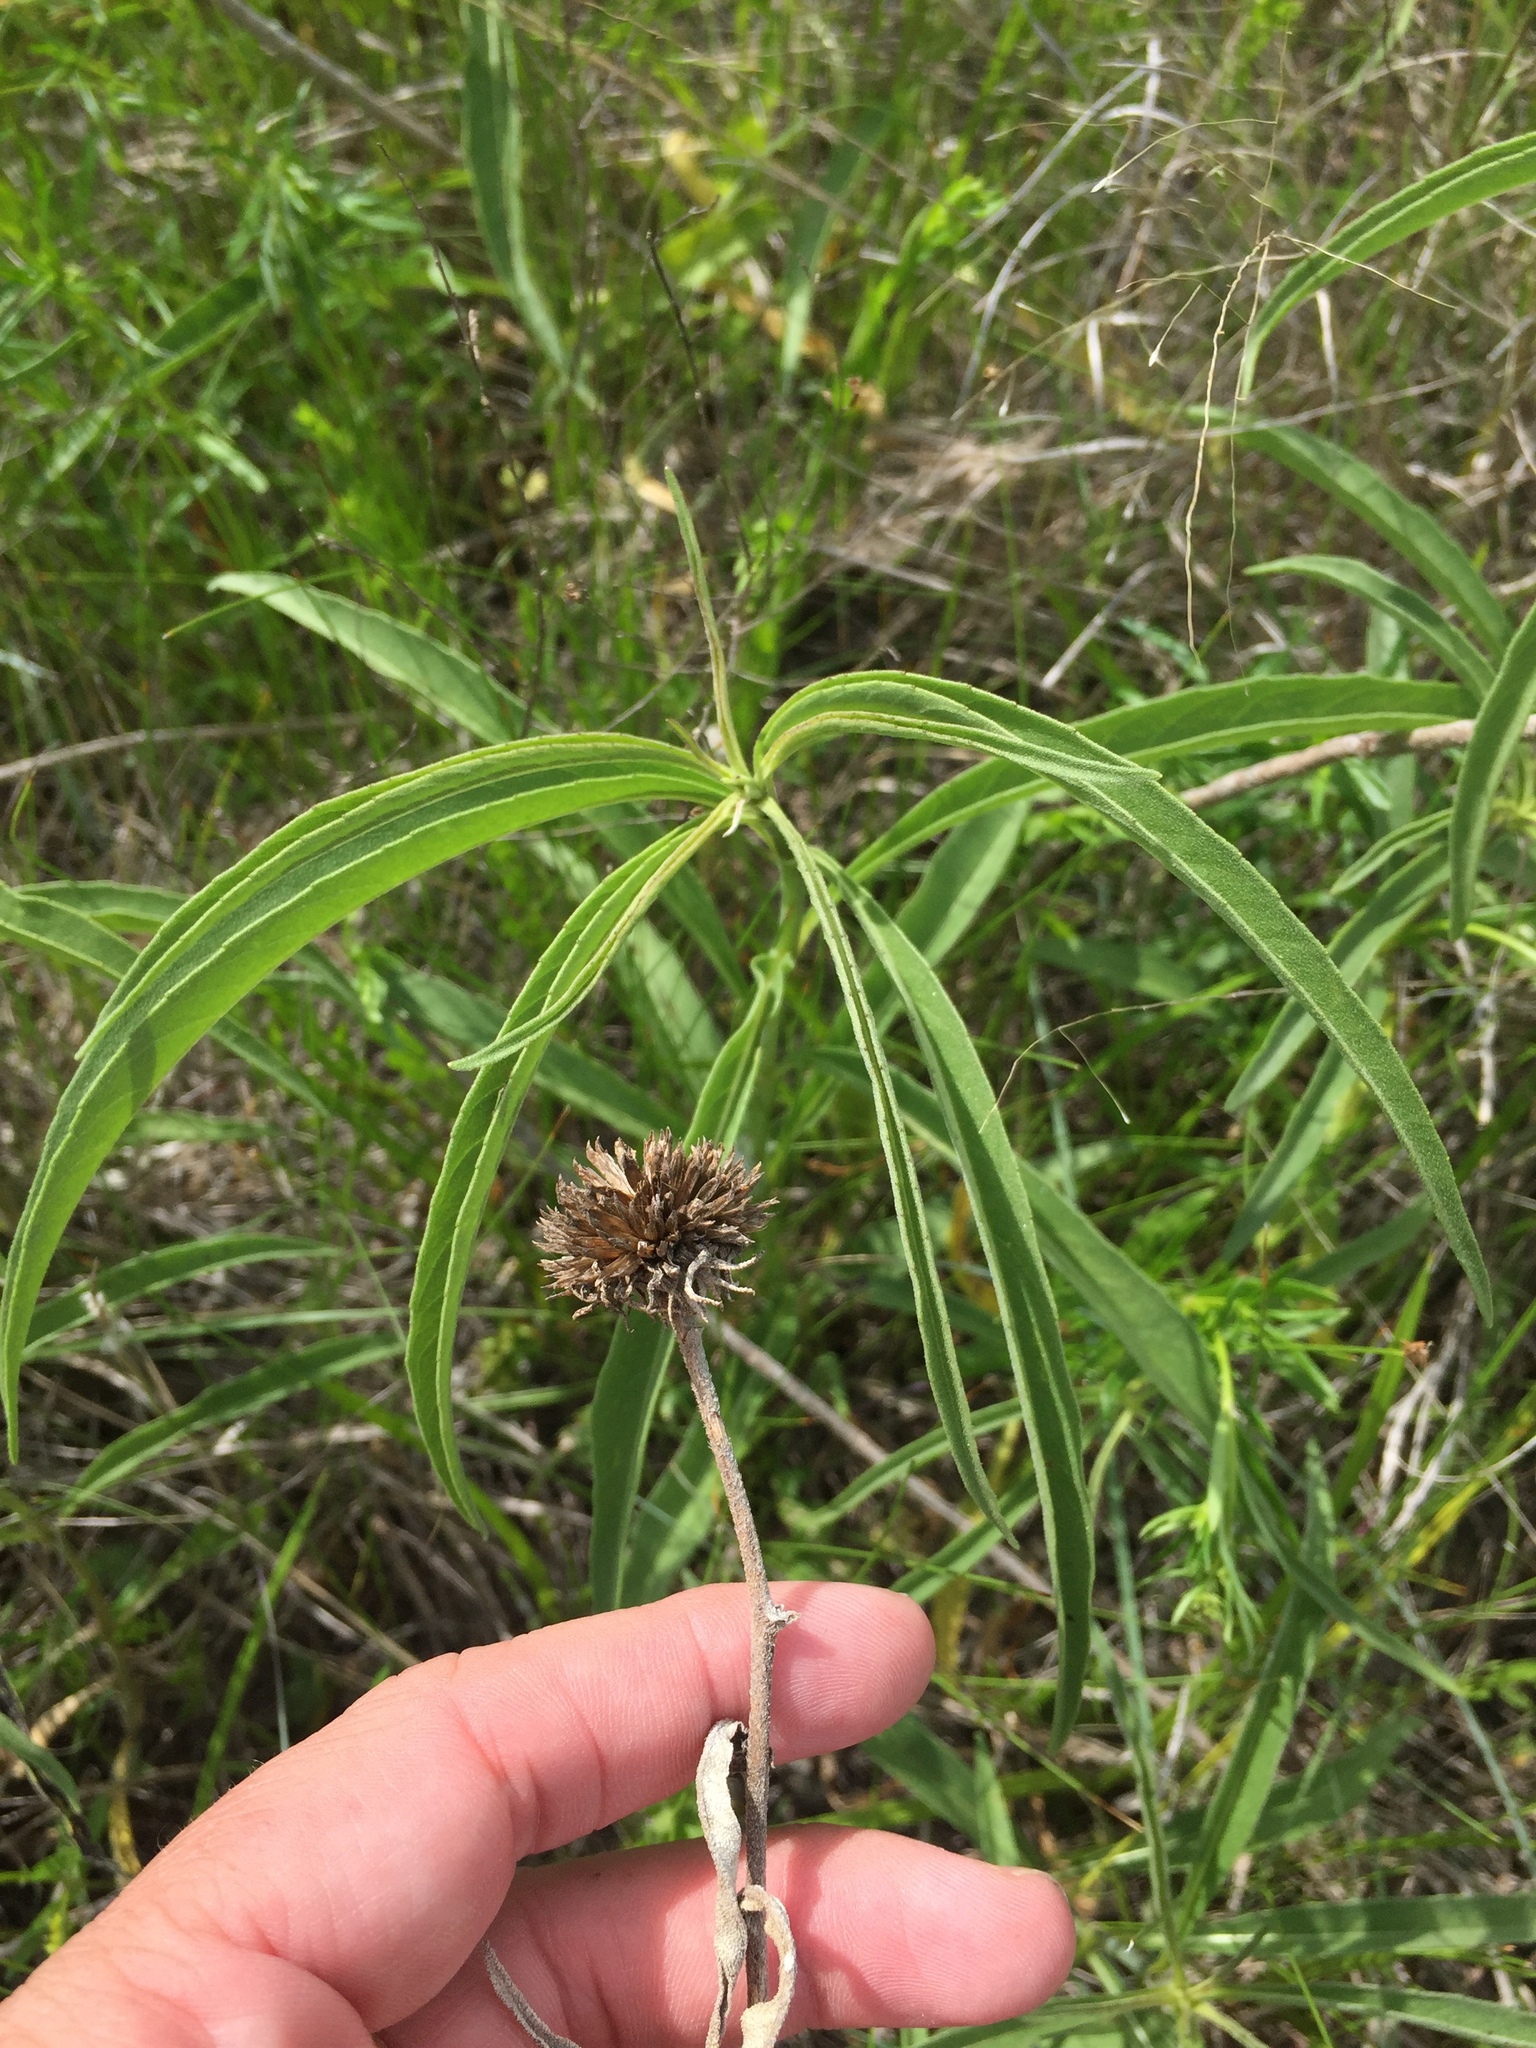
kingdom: Plantae
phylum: Tracheophyta
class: Magnoliopsida
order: Asterales
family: Asteraceae
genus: Helianthus
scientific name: Helianthus maximiliani
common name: Maximilian's sunflower
